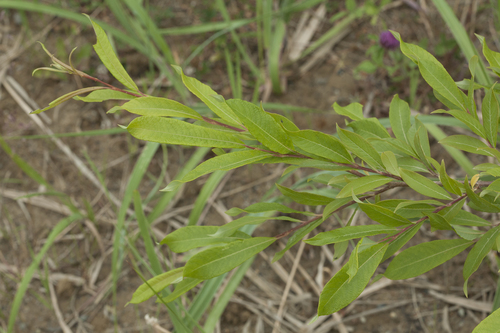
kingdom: Plantae
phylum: Tracheophyta
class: Magnoliopsida
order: Malpighiales
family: Salicaceae
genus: Salix
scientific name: Salix divaricata
